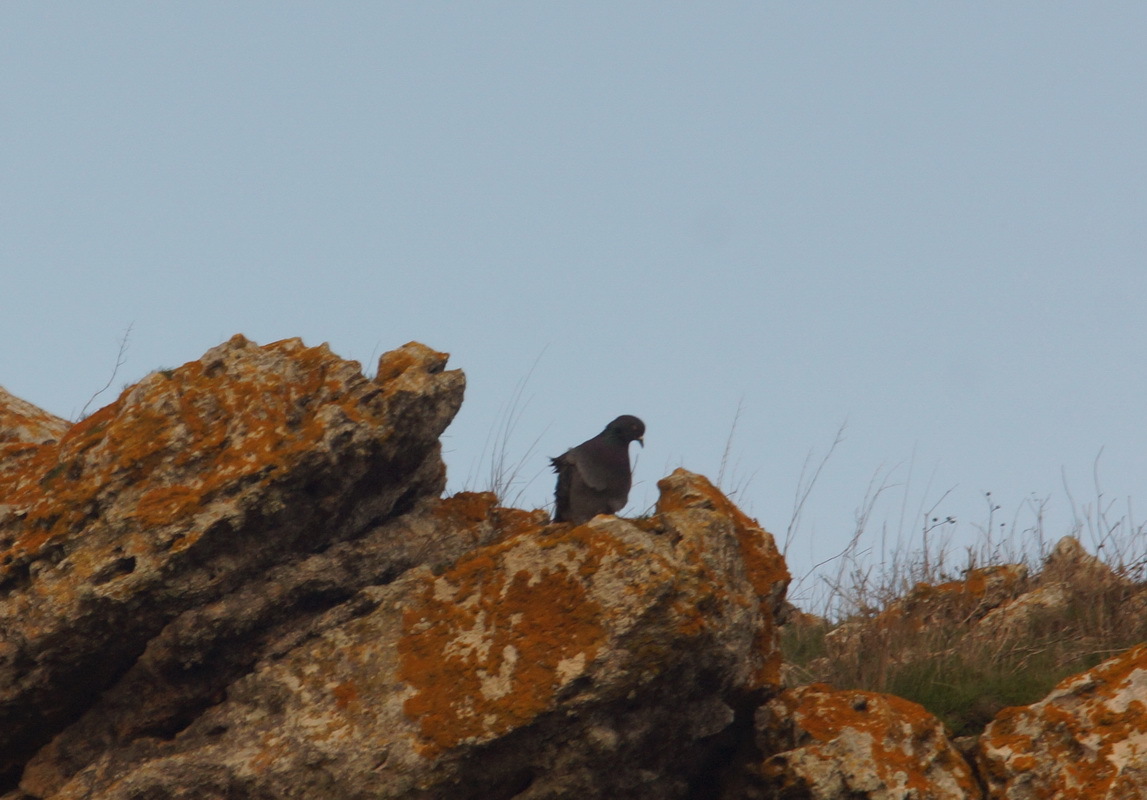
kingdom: Animalia
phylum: Chordata
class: Aves
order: Columbiformes
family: Columbidae
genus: Columba
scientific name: Columba livia
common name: Rock pigeon
